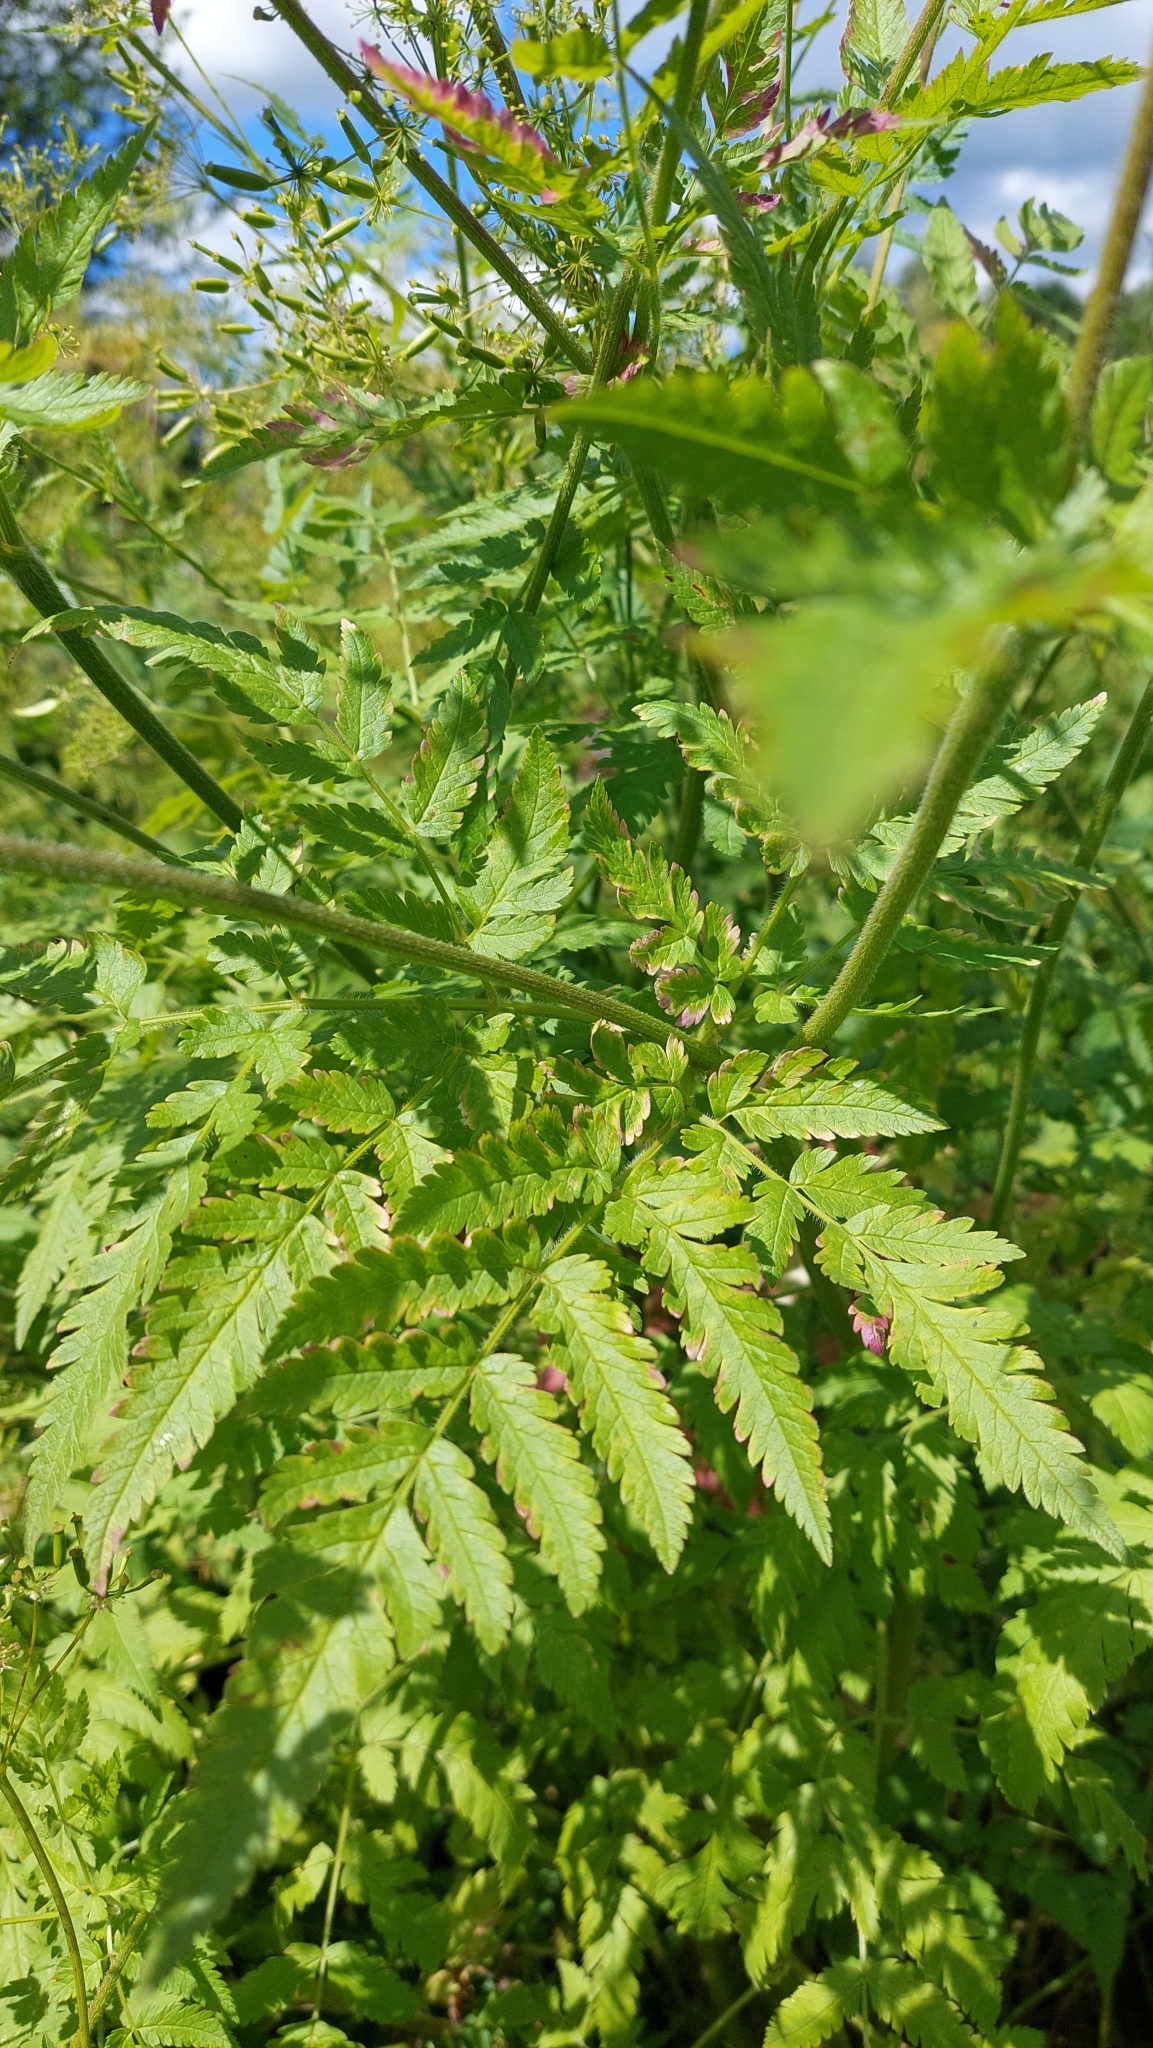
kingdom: Plantae
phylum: Tracheophyta
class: Magnoliopsida
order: Apiales
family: Apiaceae
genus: Chaerophyllum
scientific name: Chaerophyllum aureum
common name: Golden chervil
